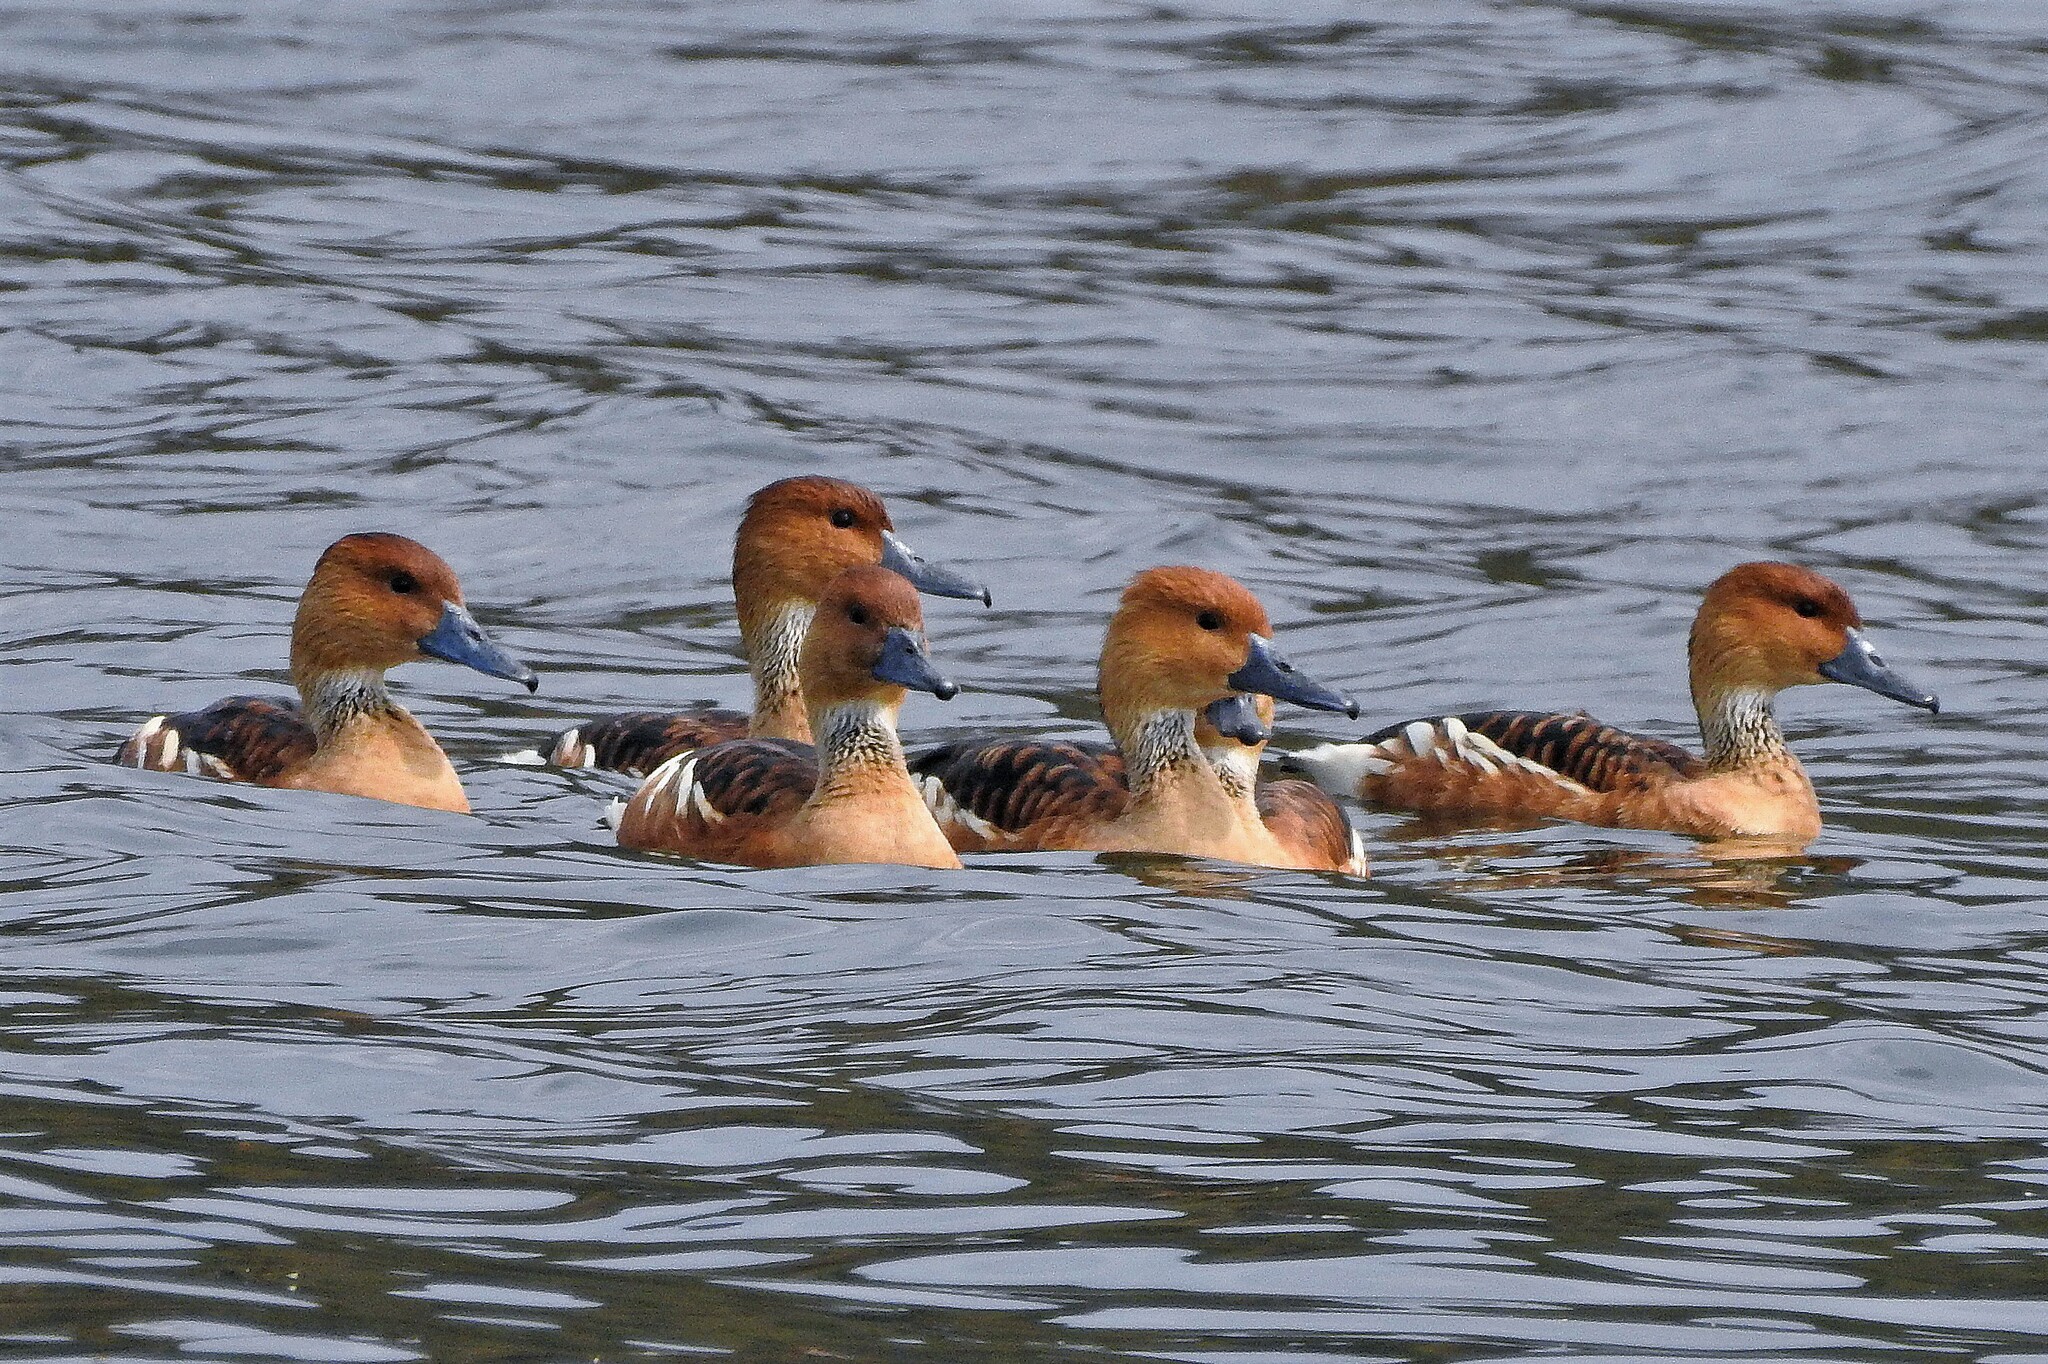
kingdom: Animalia
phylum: Chordata
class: Aves
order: Anseriformes
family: Anatidae
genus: Dendrocygna
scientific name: Dendrocygna bicolor
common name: Fulvous whistling duck
